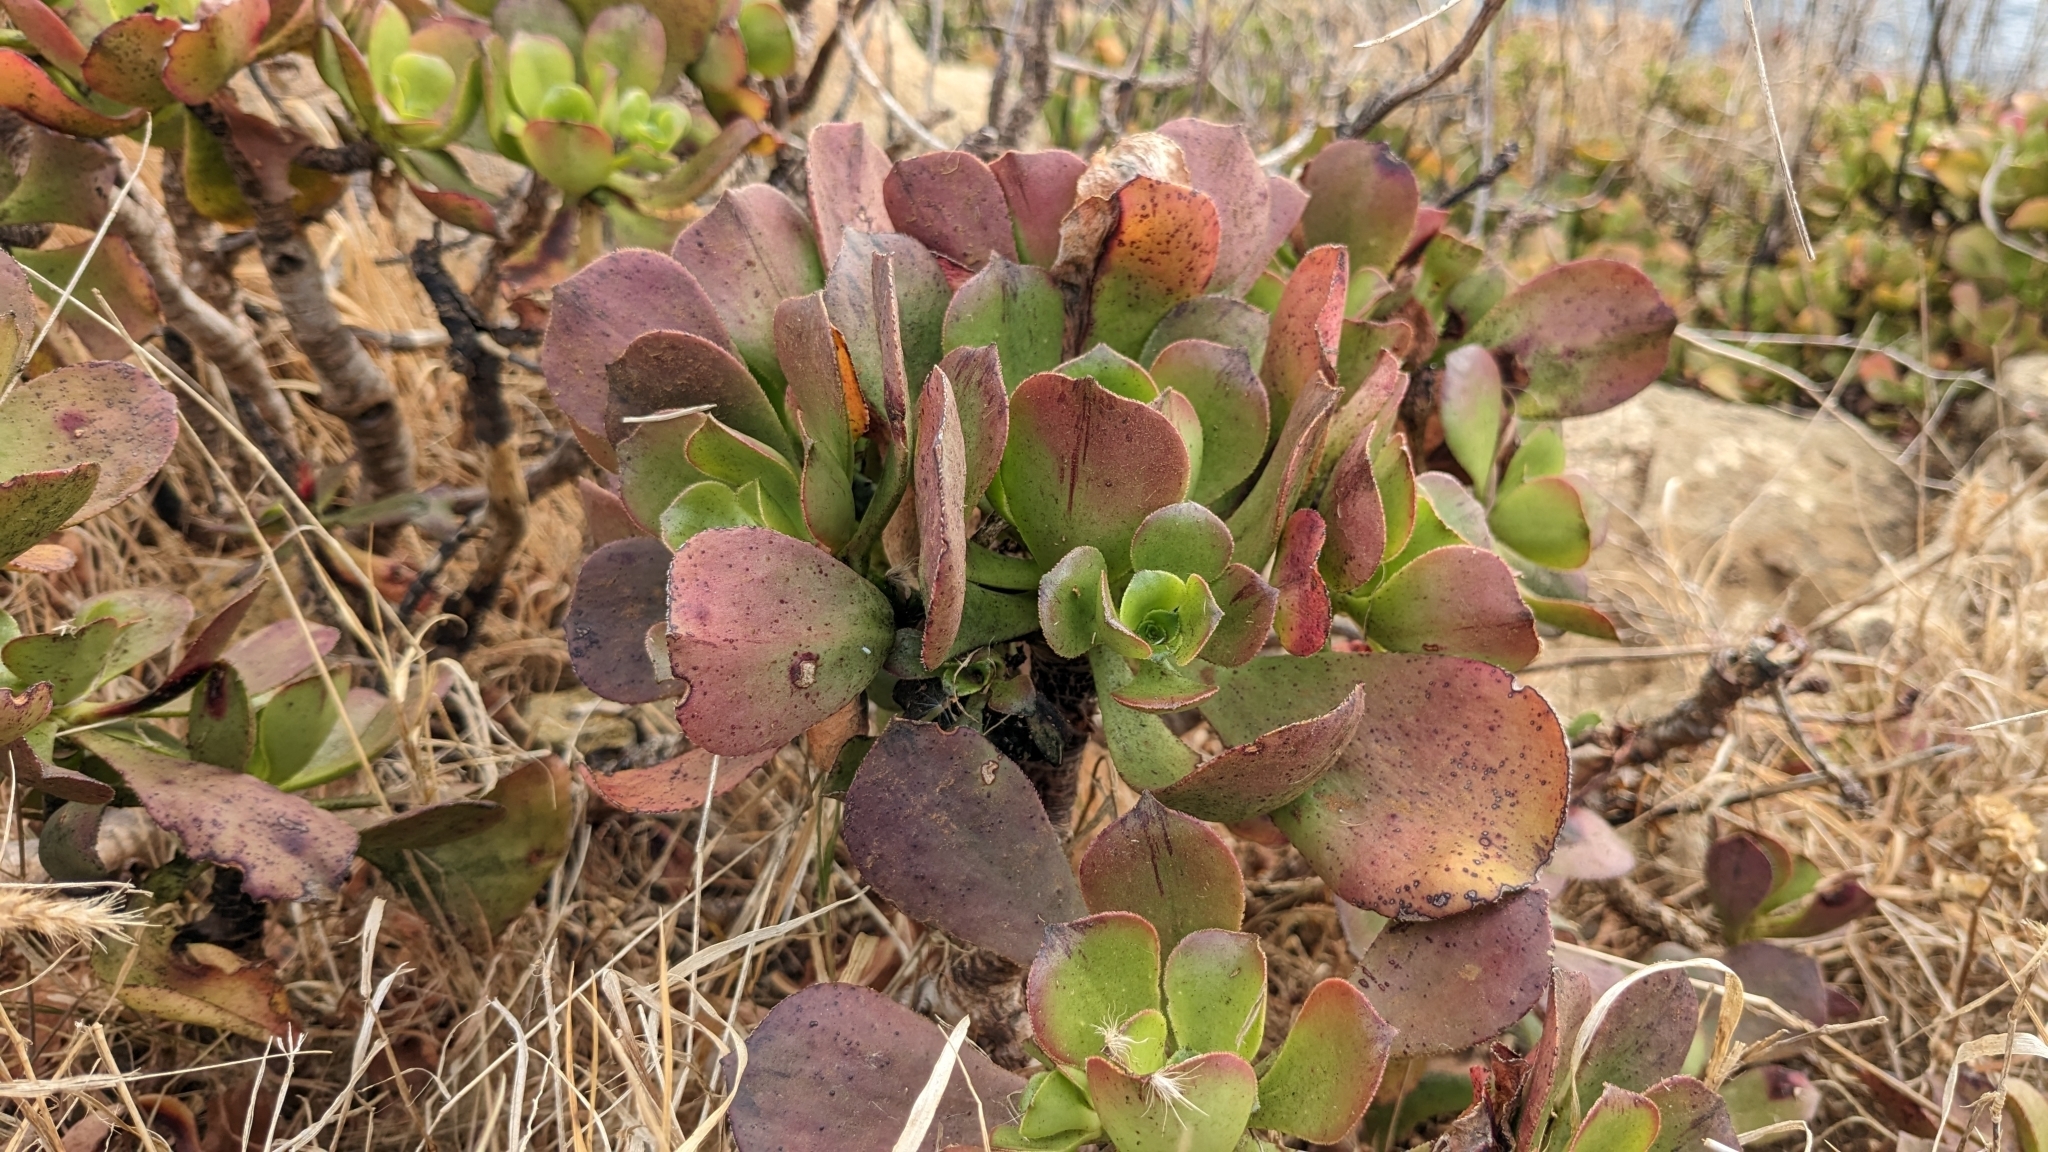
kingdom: Plantae
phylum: Tracheophyta
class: Magnoliopsida
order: Saxifragales
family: Crassulaceae
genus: Aeonium
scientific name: Aeonium glutinosum
